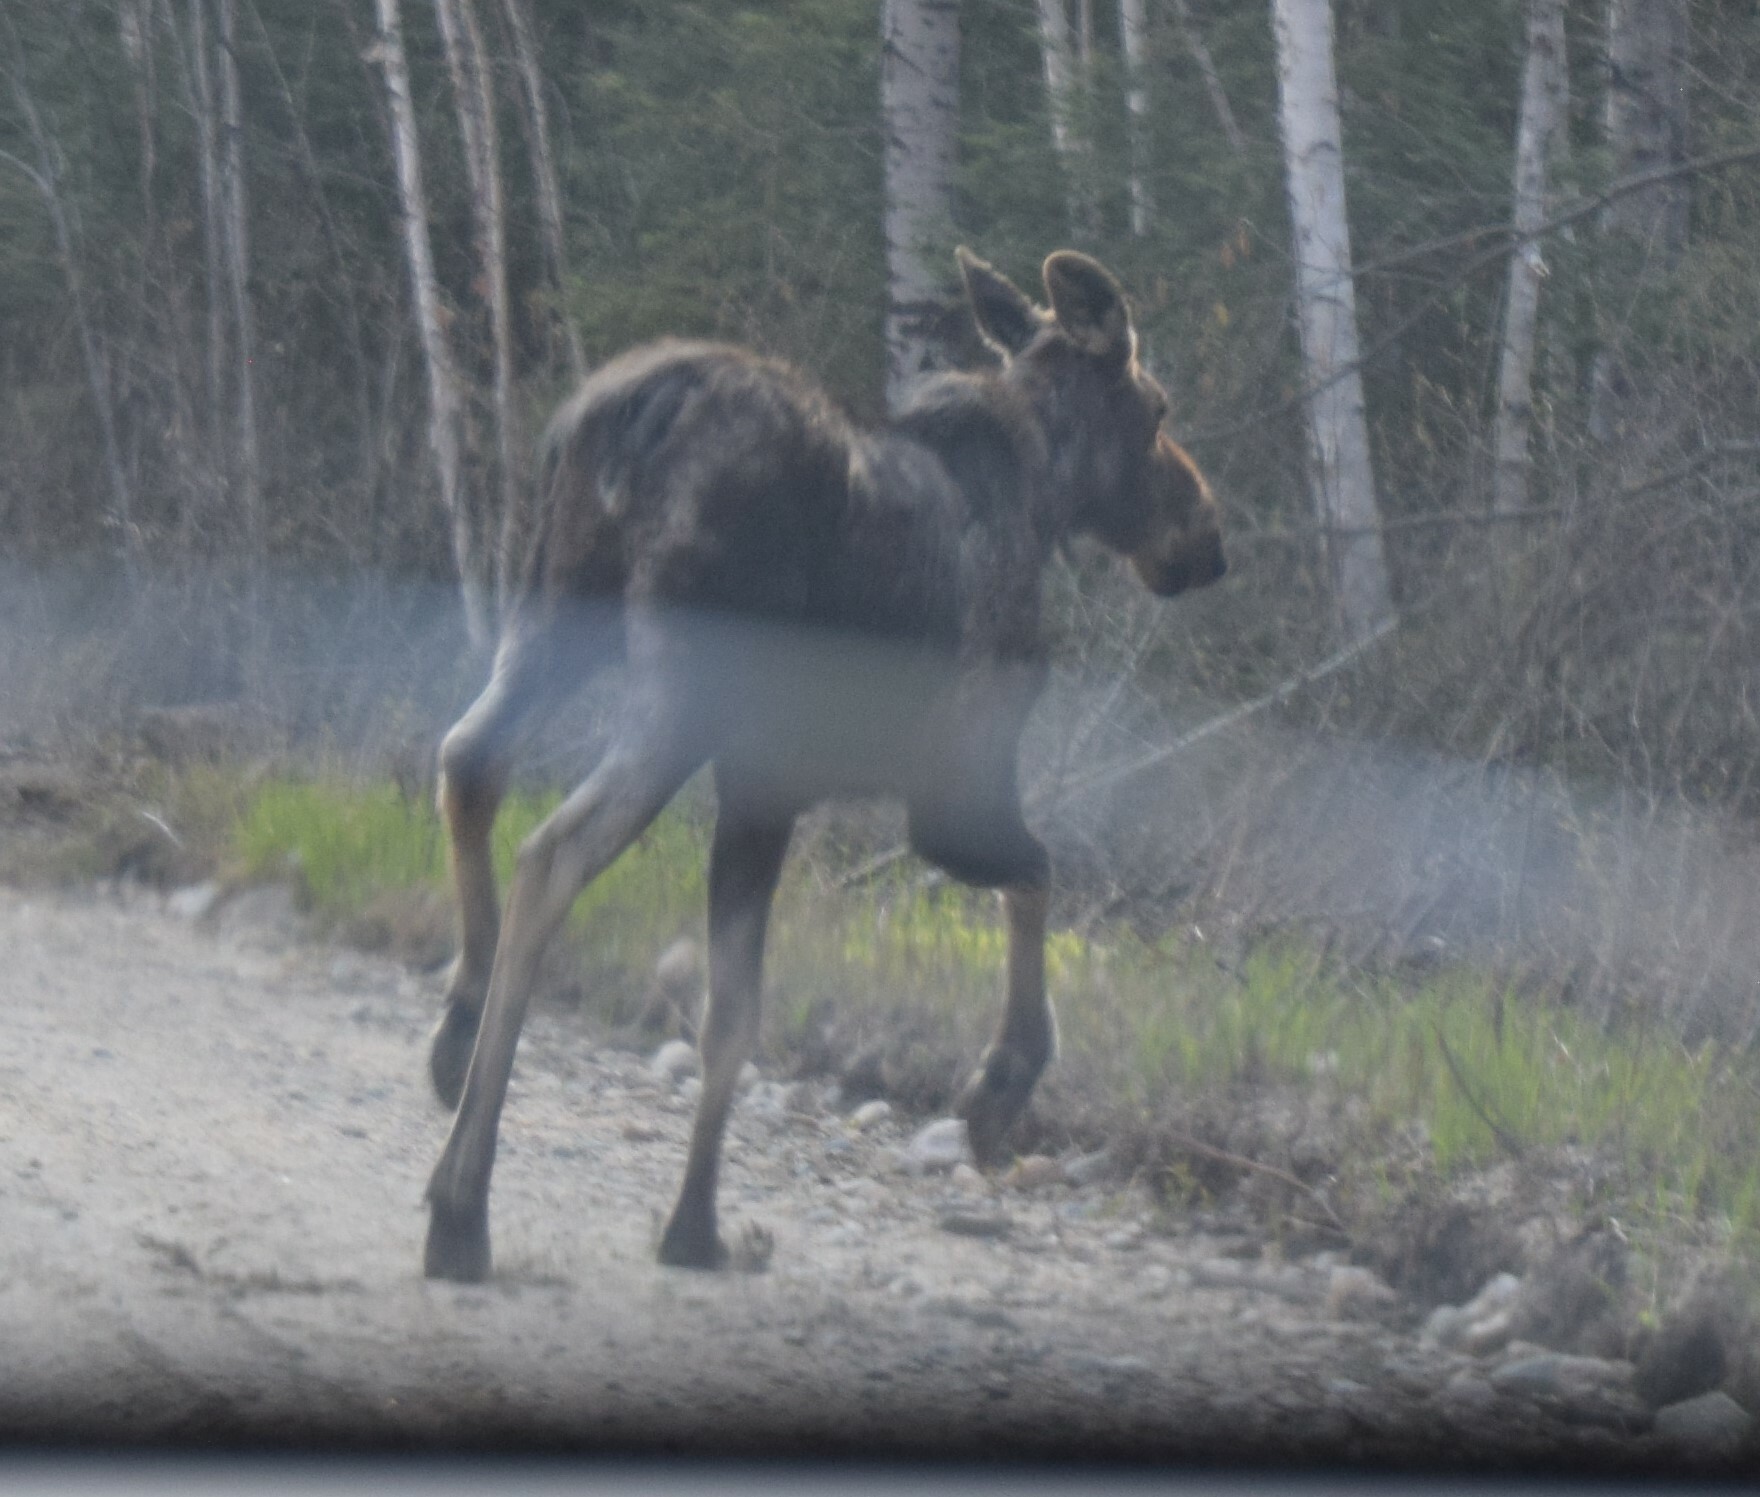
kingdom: Animalia
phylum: Chordata
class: Mammalia
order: Artiodactyla
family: Cervidae
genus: Alces
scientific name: Alces alces
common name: Moose
